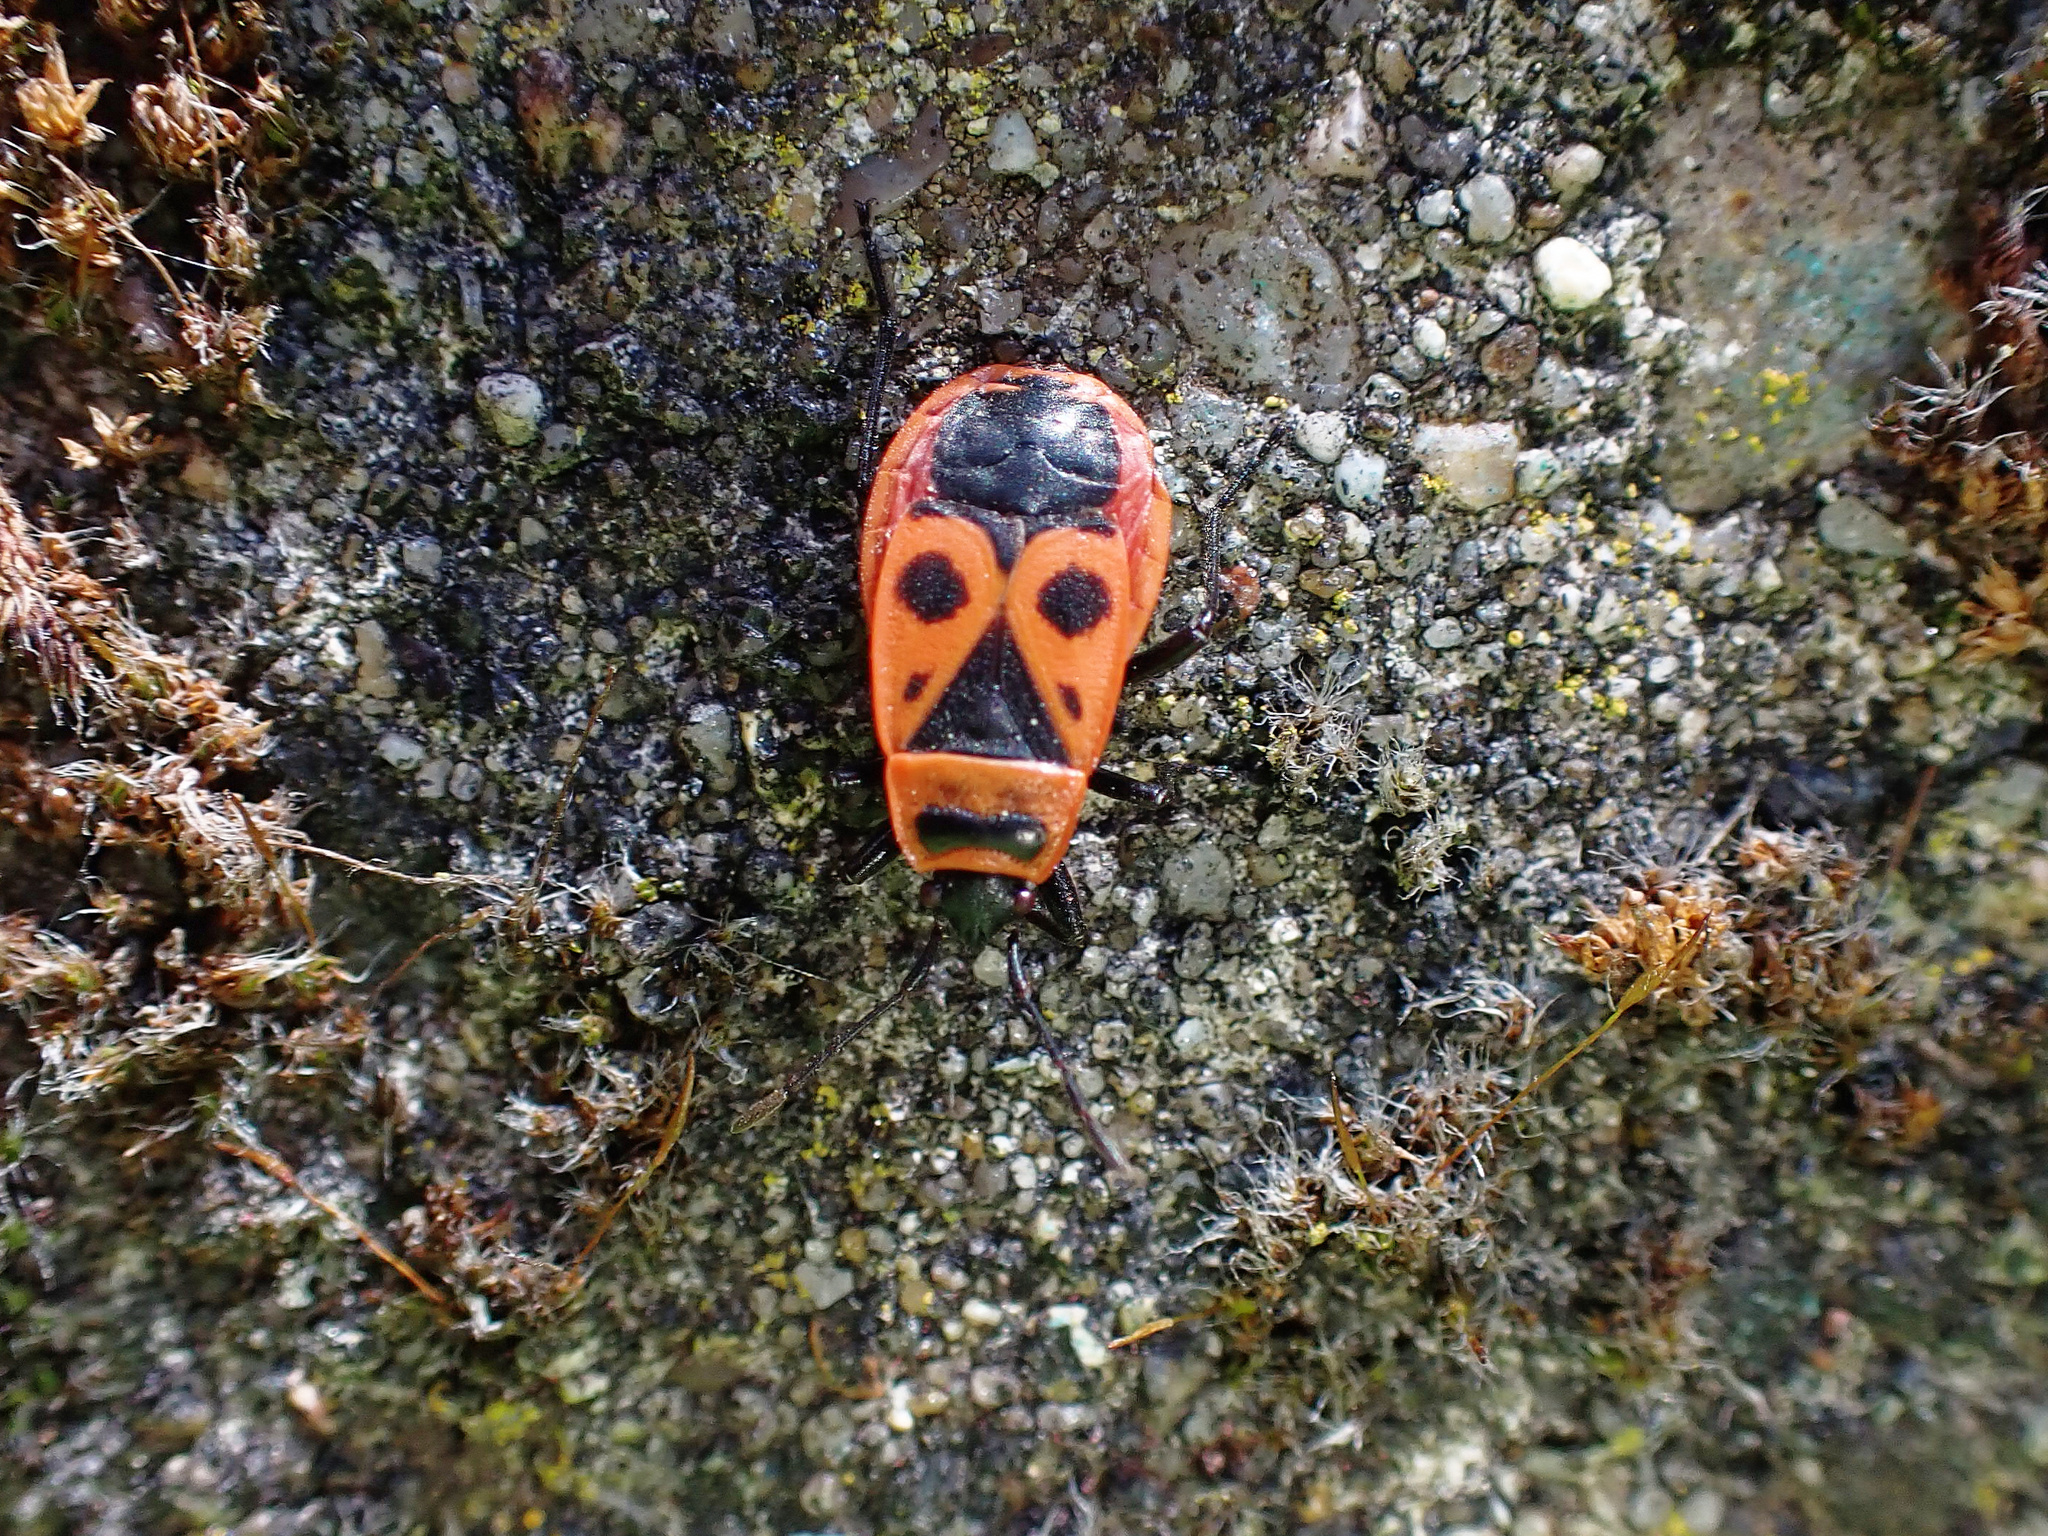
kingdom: Animalia
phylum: Arthropoda
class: Insecta
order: Hemiptera
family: Pyrrhocoridae
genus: Pyrrhocoris
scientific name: Pyrrhocoris apterus
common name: Firebug
